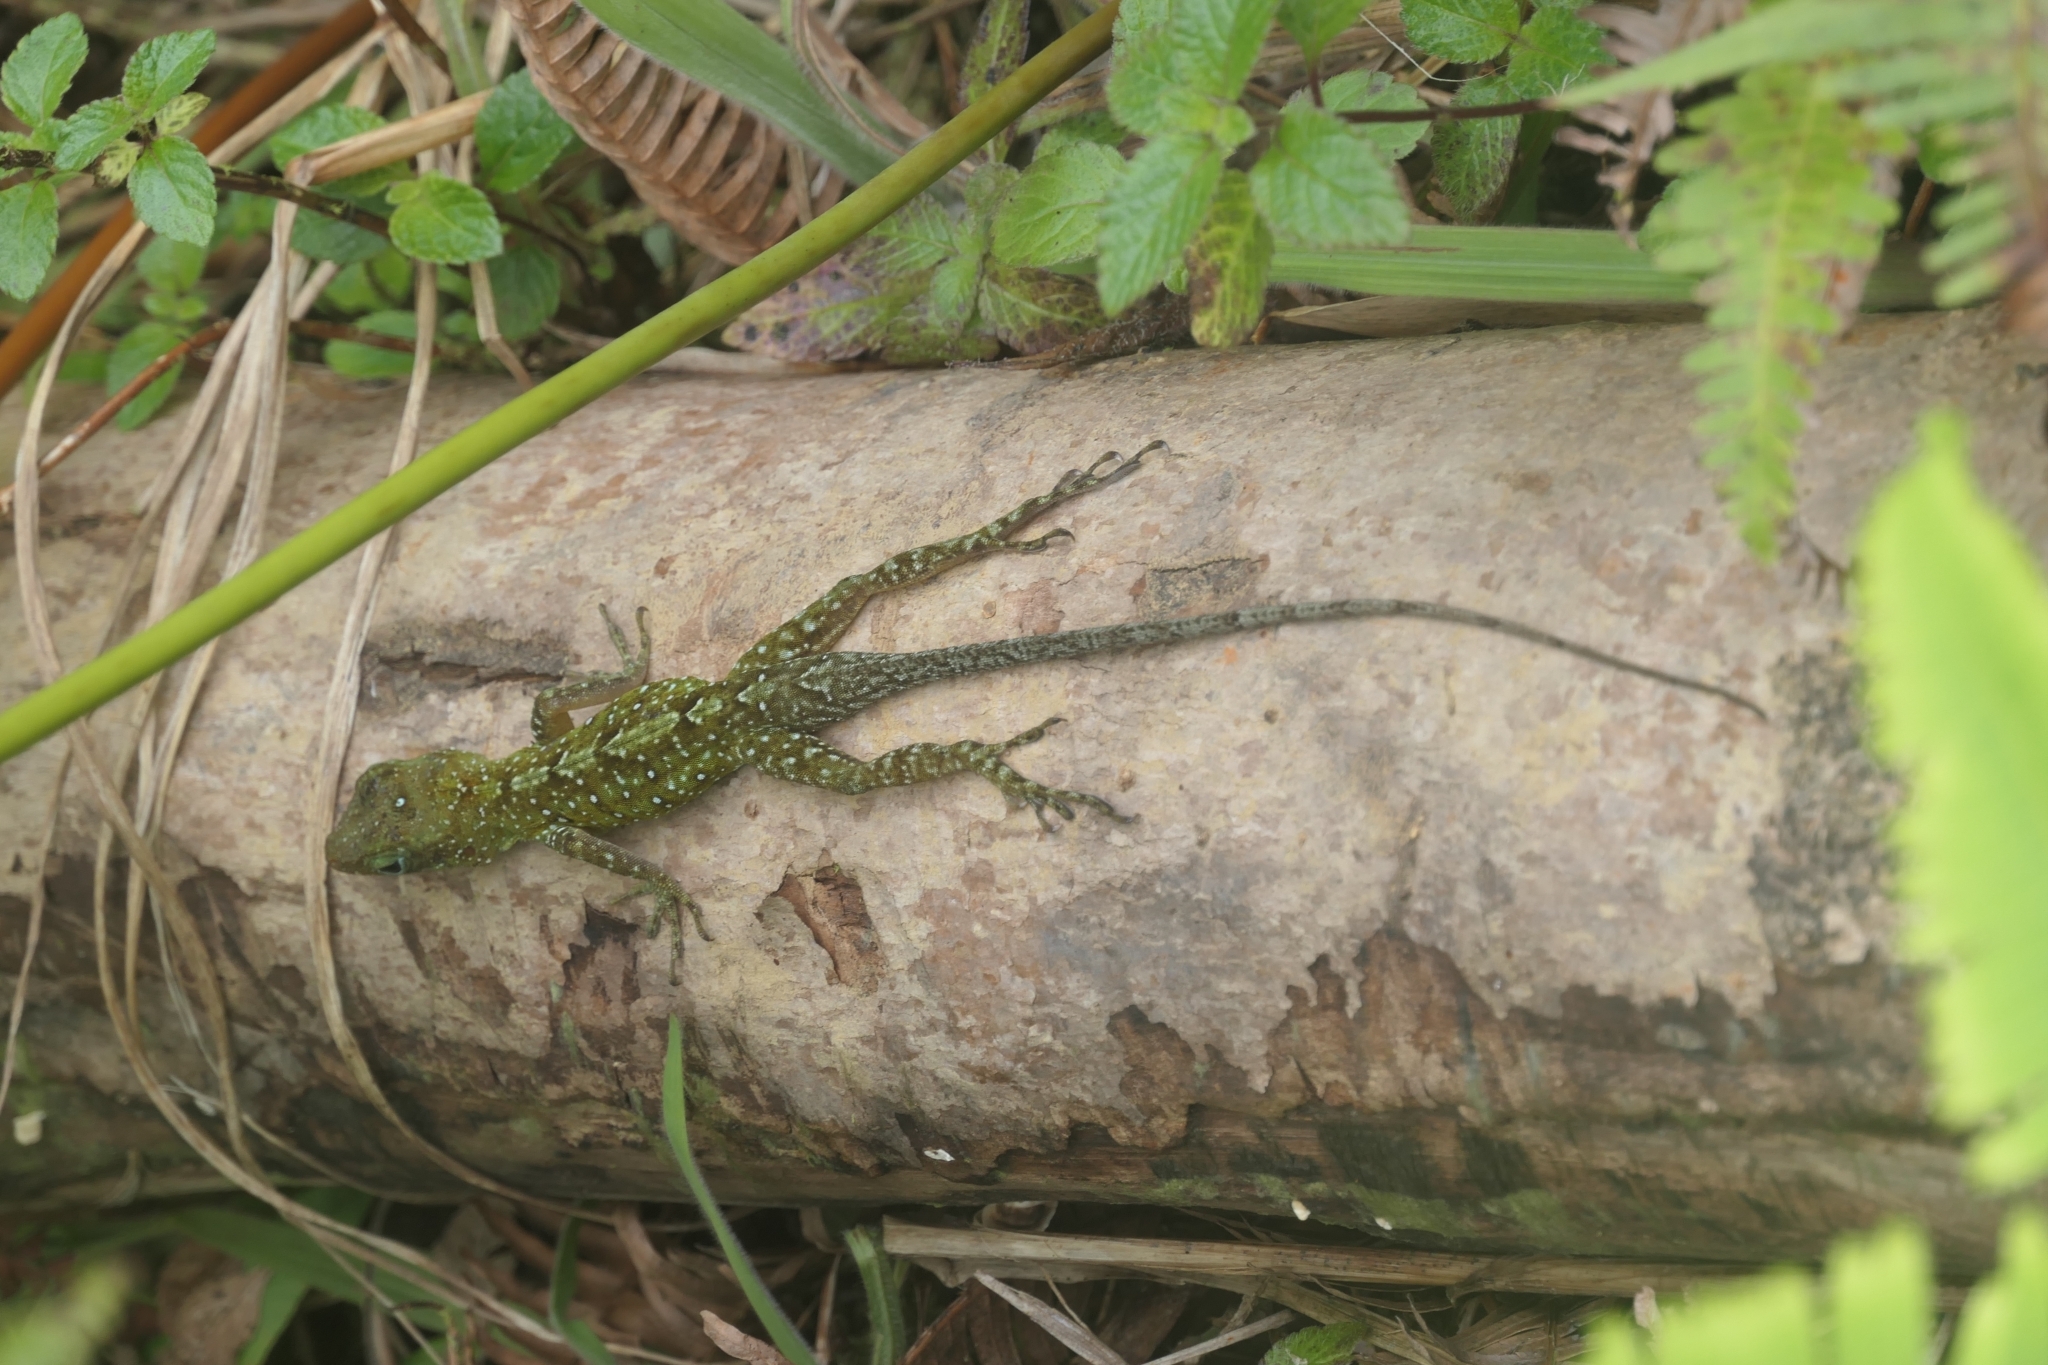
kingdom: Animalia
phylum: Chordata
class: Squamata
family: Dactyloidae
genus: Anolis
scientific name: Anolis oculatus
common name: Dominica anole
